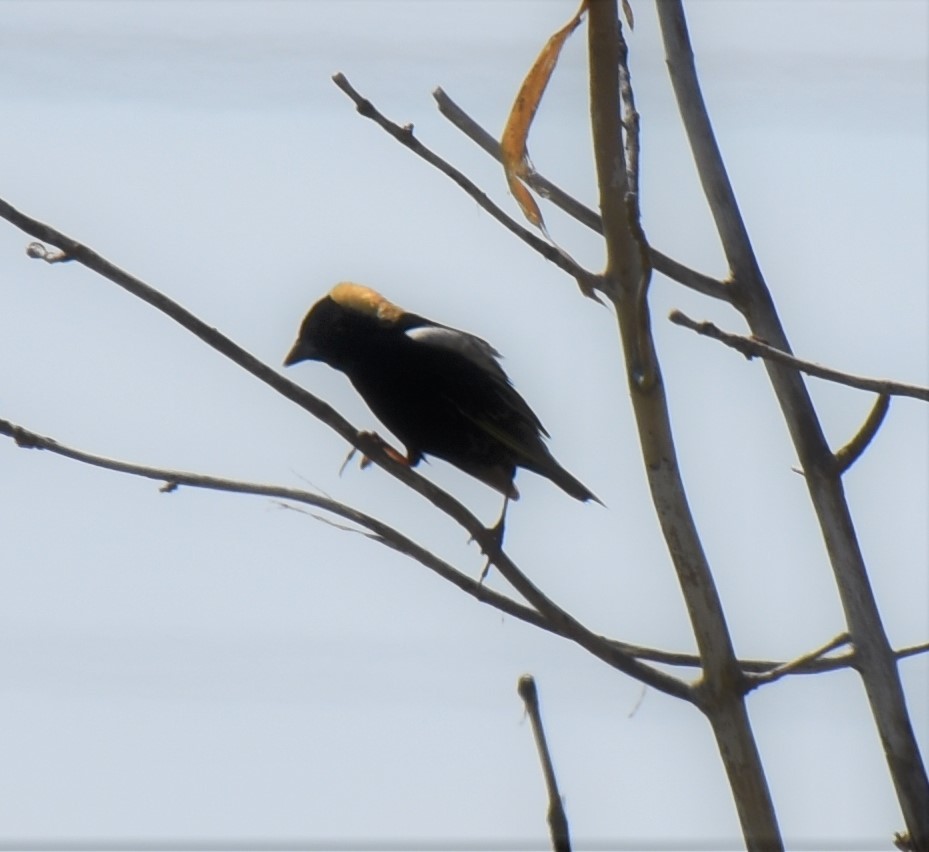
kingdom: Animalia
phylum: Chordata
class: Aves
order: Passeriformes
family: Icteridae
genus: Dolichonyx
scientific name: Dolichonyx oryzivorus
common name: Bobolink
